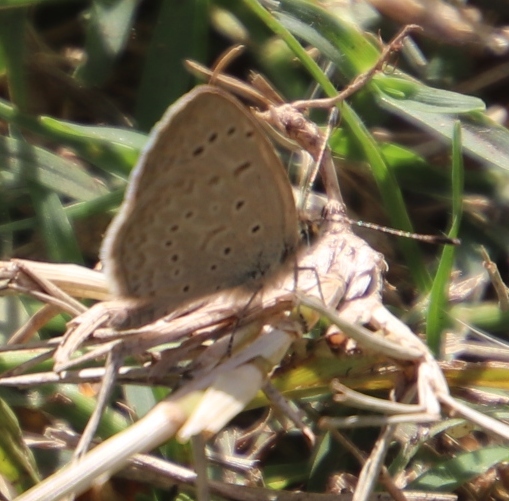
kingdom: Animalia
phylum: Arthropoda
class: Insecta
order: Lepidoptera
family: Lycaenidae
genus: Zizeeria
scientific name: Zizeeria knysna
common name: African grass blue
